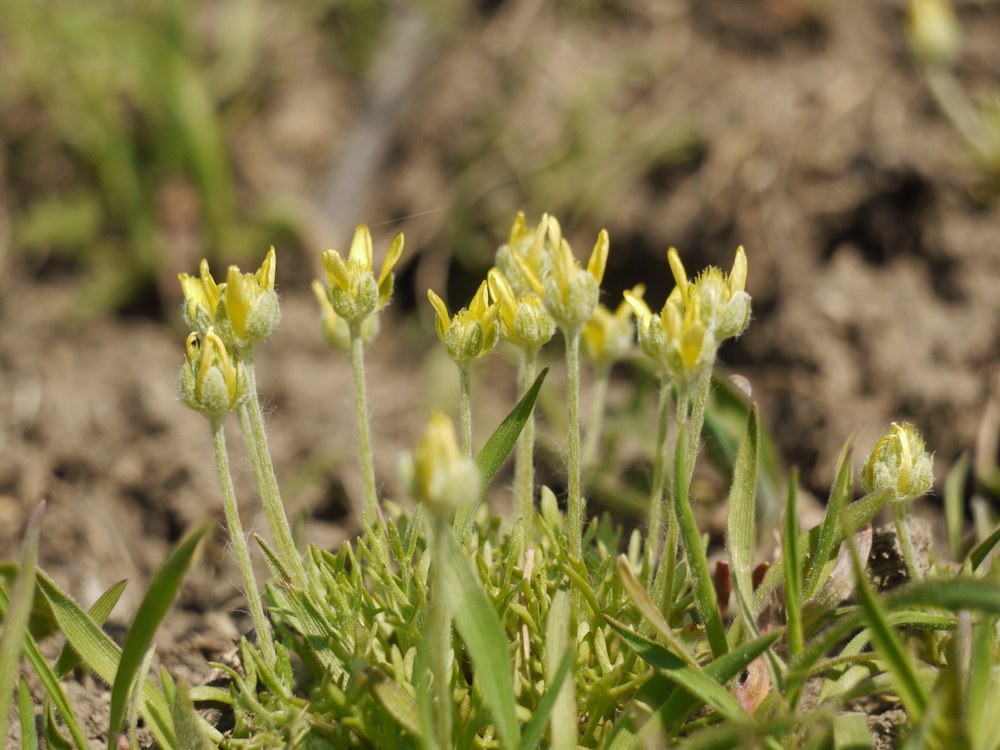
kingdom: Plantae
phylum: Tracheophyta
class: Magnoliopsida
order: Ranunculales
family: Ranunculaceae
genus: Ceratocephala
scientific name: Ceratocephala falcata
